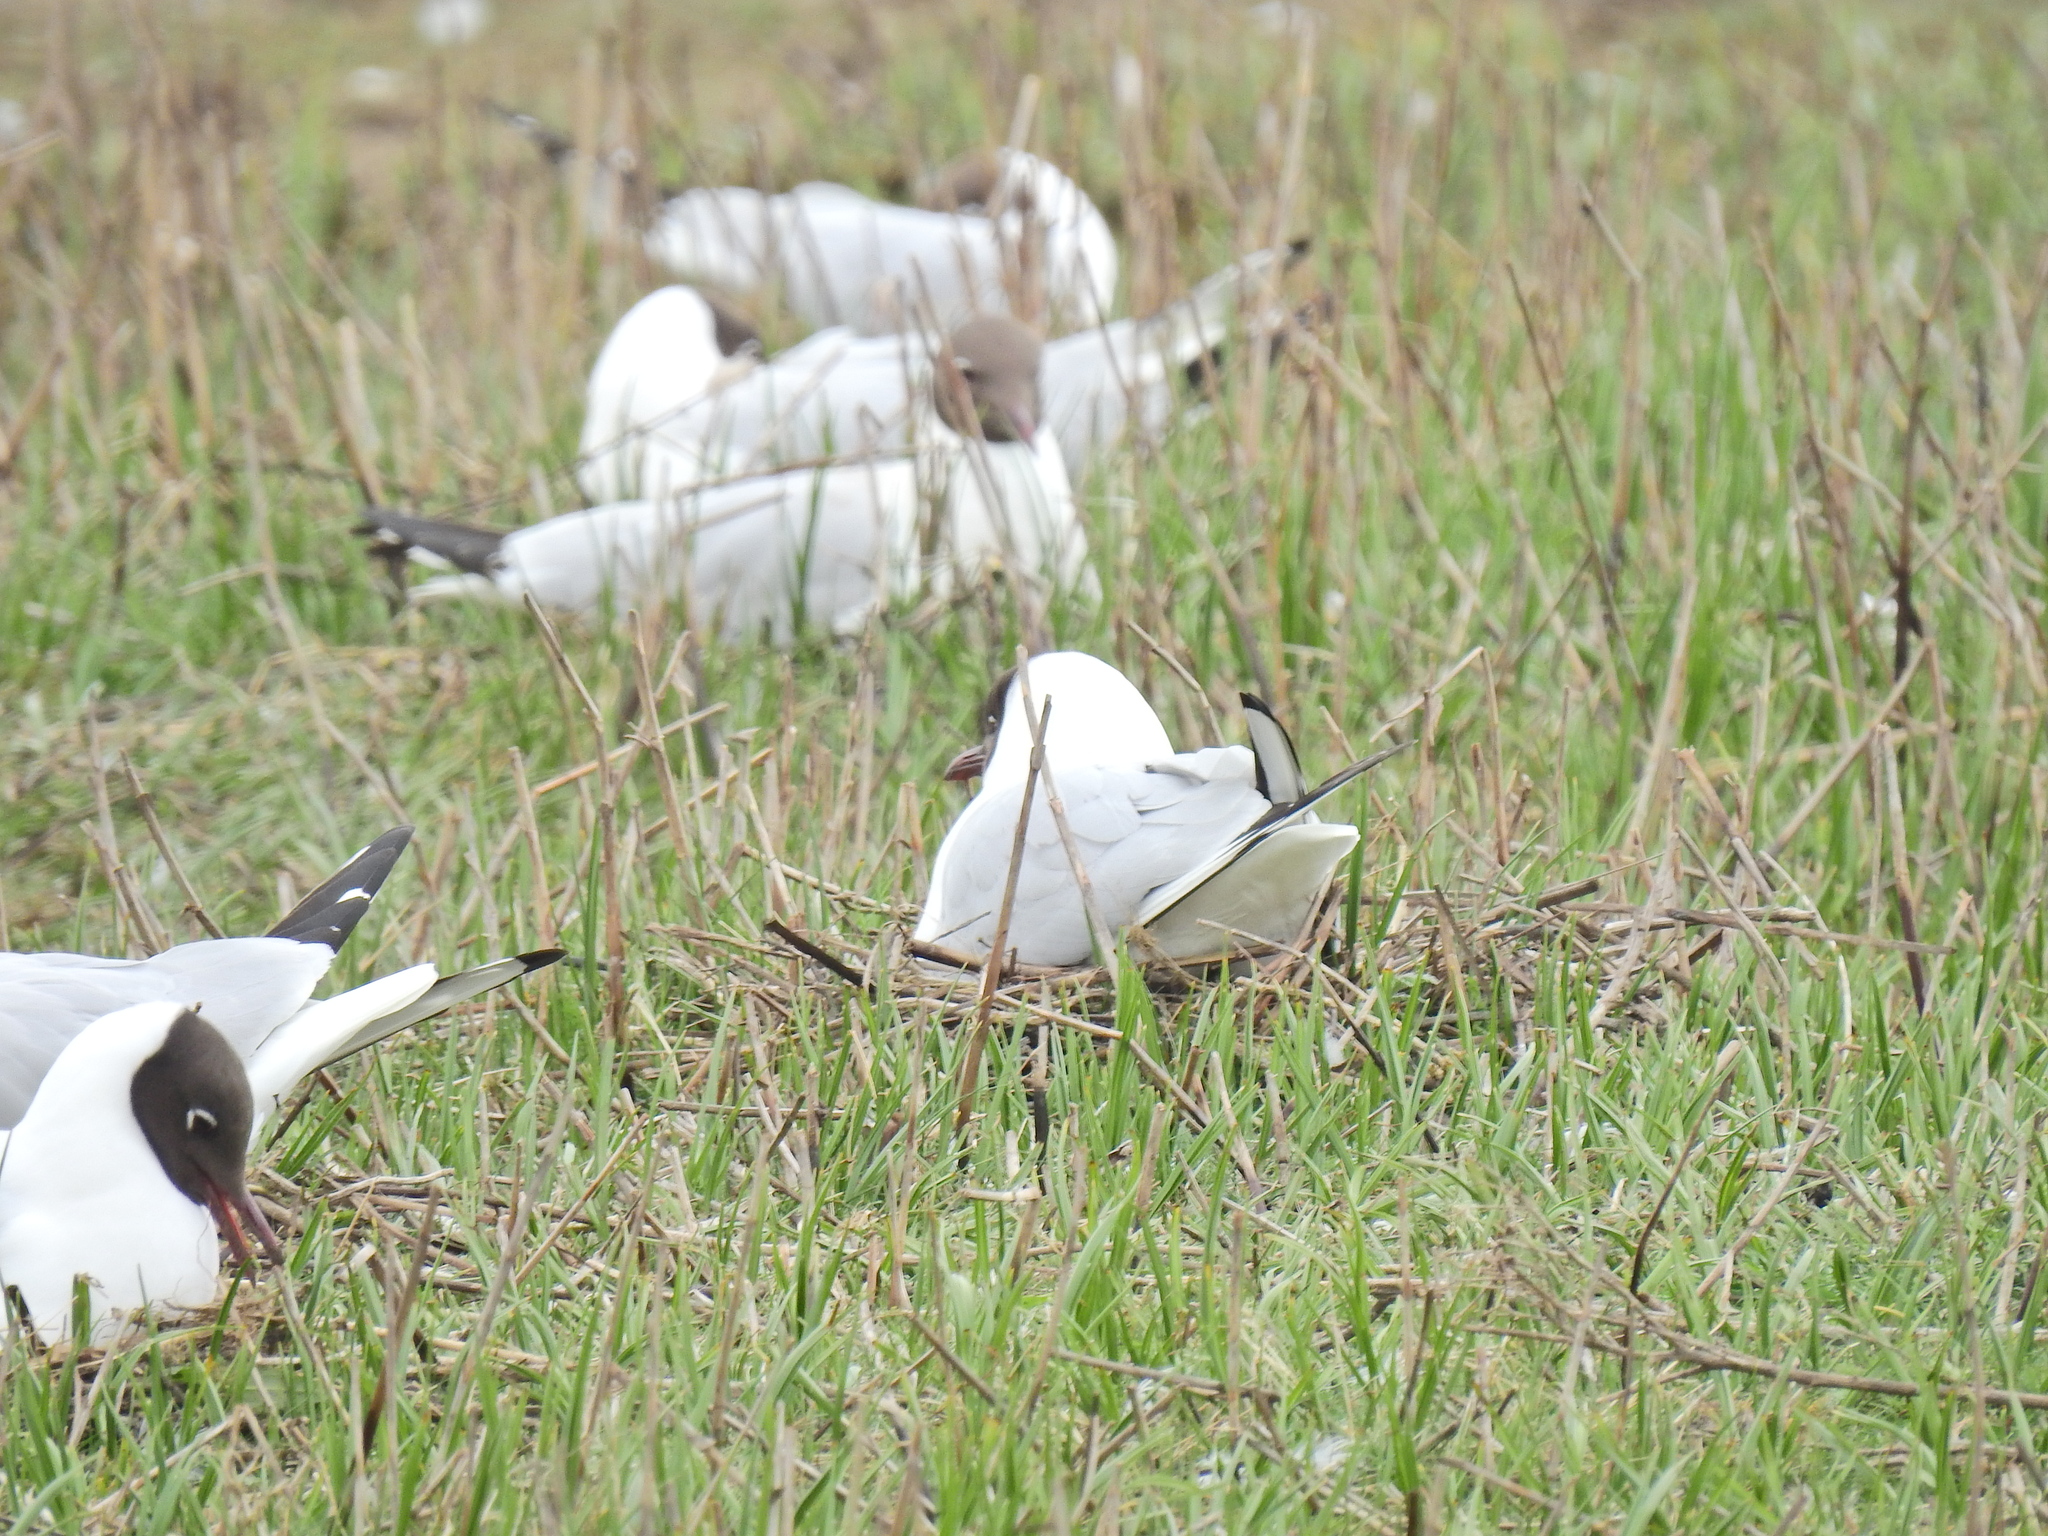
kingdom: Animalia
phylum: Chordata
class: Aves
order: Charadriiformes
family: Laridae
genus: Chroicocephalus
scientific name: Chroicocephalus ridibundus
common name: Black-headed gull
